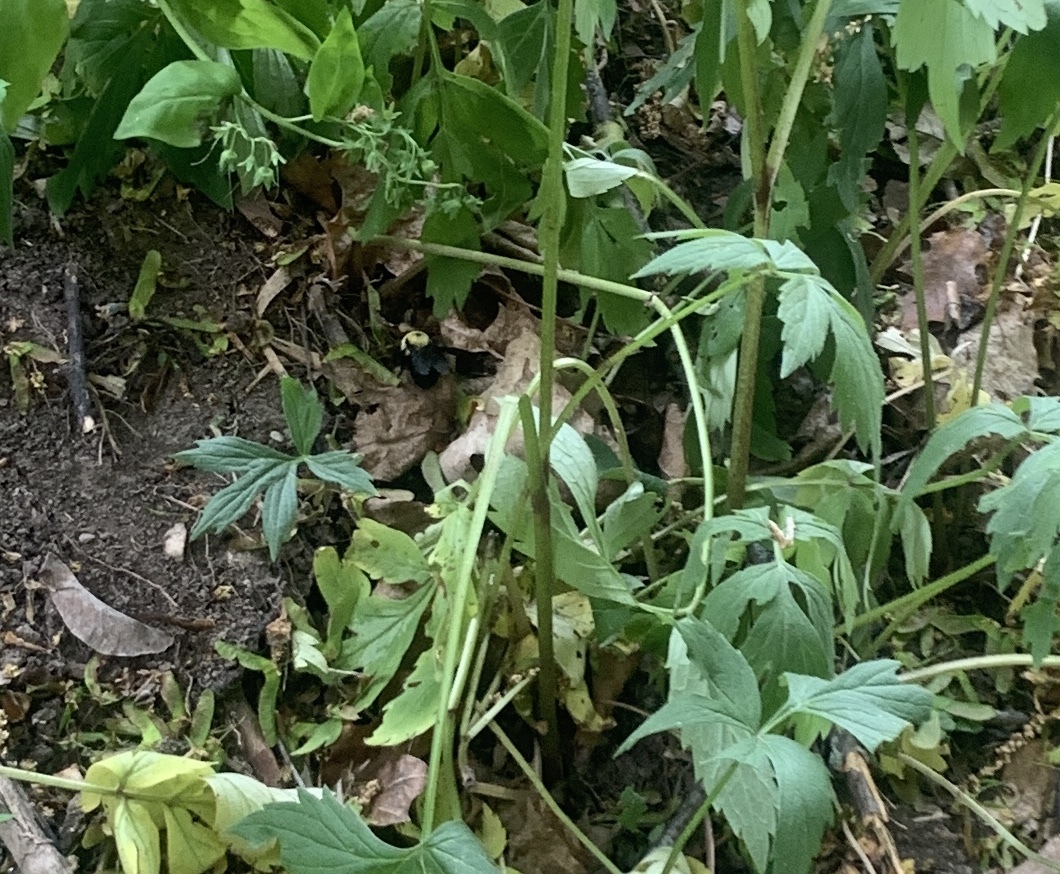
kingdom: Animalia
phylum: Arthropoda
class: Insecta
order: Hymenoptera
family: Apidae
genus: Bombus
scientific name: Bombus bimaculatus
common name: Two-spotted bumble bee
